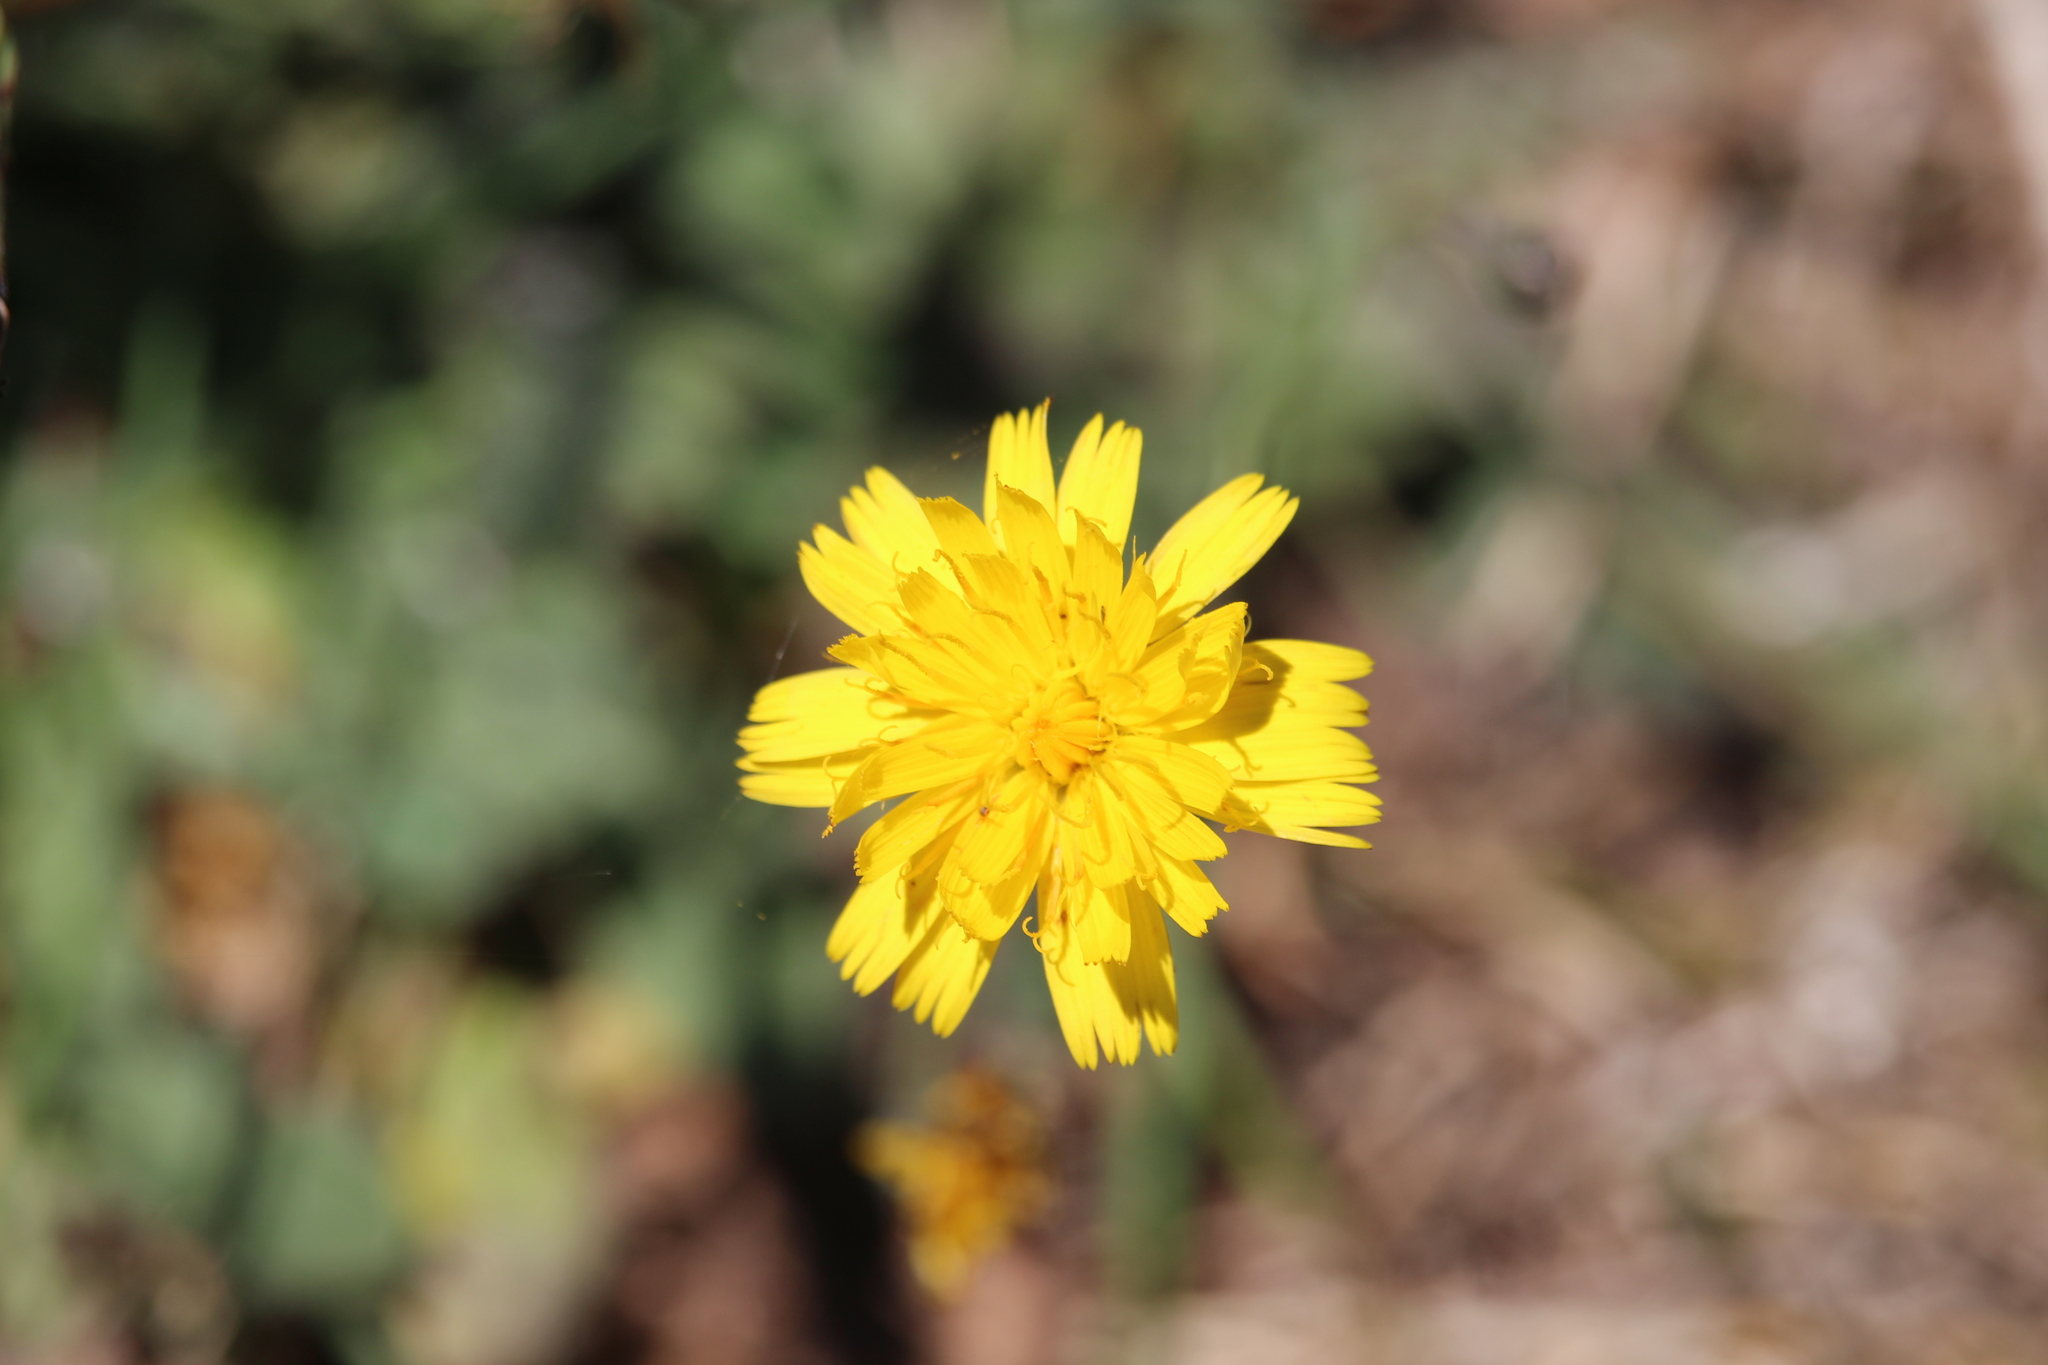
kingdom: Plantae
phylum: Tracheophyta
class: Magnoliopsida
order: Asterales
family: Asteraceae
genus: Hypochaeris
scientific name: Hypochaeris radicata
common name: Flatweed
